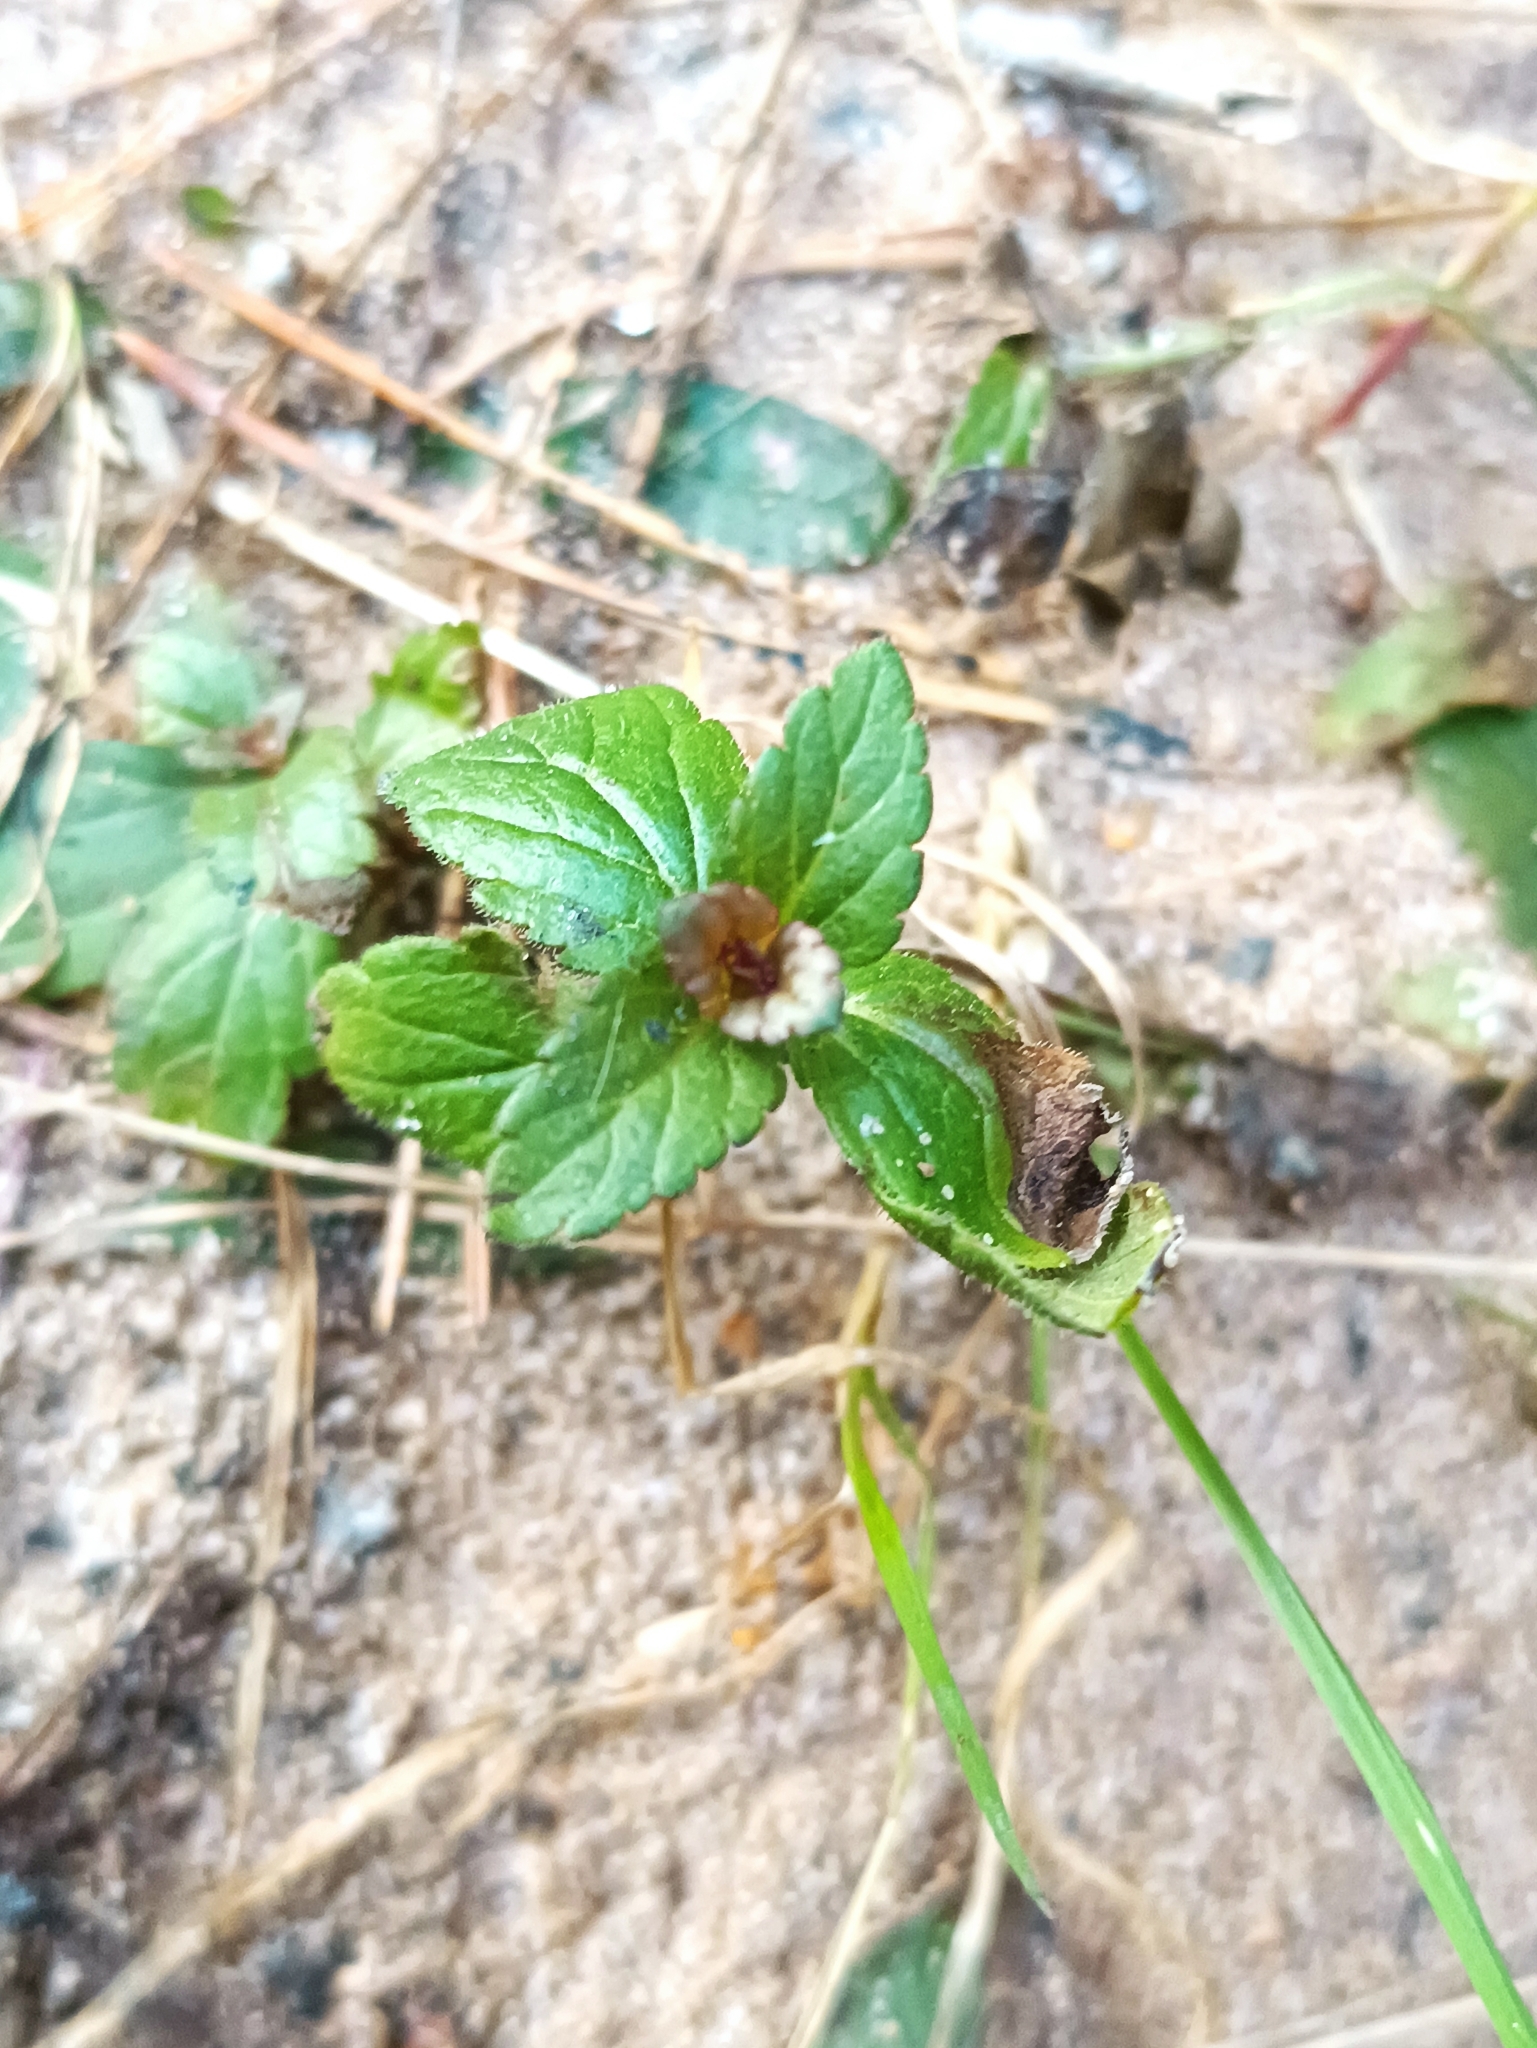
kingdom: Plantae
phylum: Tracheophyta
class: Magnoliopsida
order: Lamiales
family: Plantaginaceae
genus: Veronica
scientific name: Veronica chamaedrys
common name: Germander speedwell
